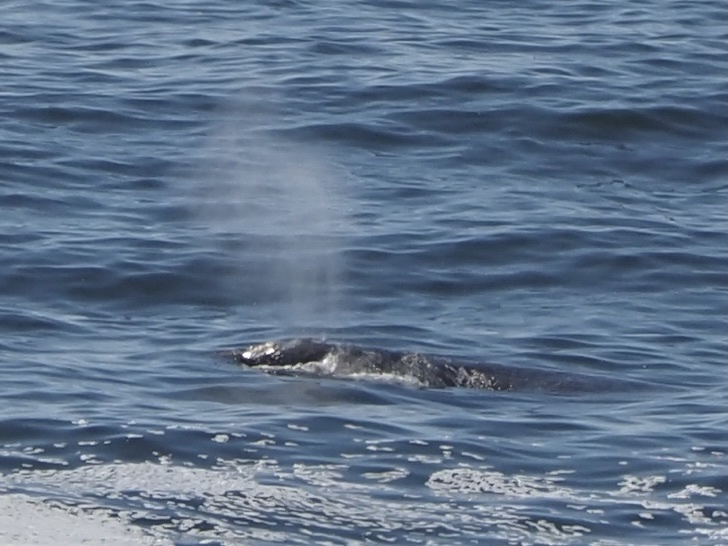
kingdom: Animalia
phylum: Chordata
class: Mammalia
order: Cetacea
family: Eschrichtiidae
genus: Eschrichtius
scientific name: Eschrichtius robustus
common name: Gray whale
